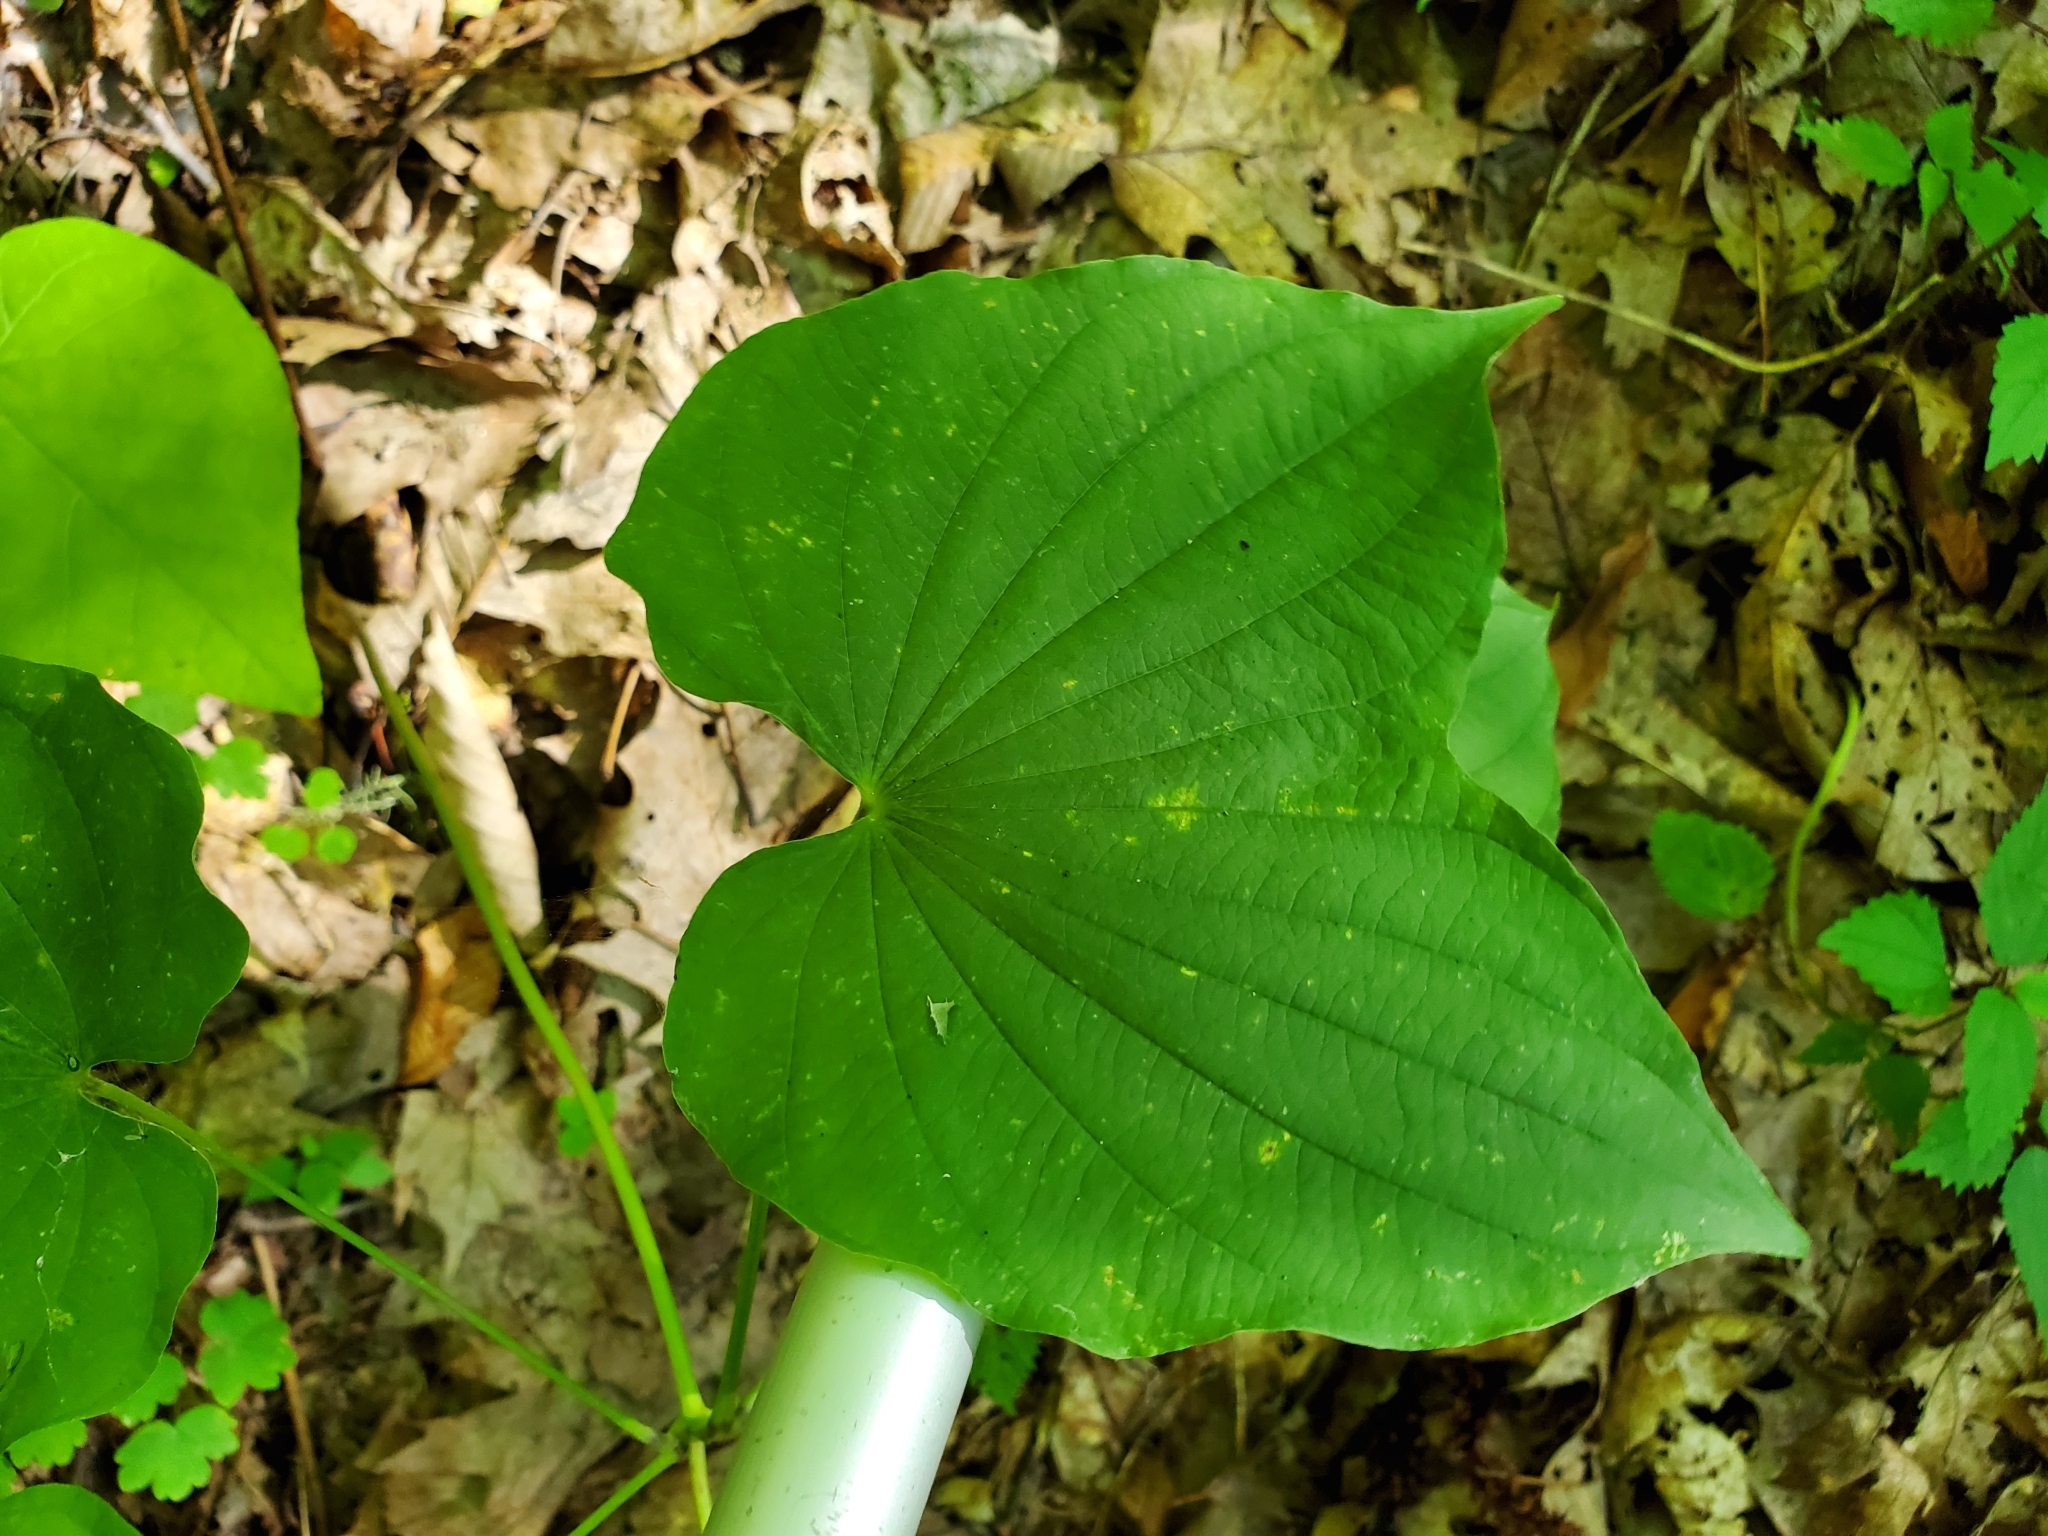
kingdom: Plantae
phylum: Tracheophyta
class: Liliopsida
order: Dioscoreales
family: Dioscoreaceae
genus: Dioscorea
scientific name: Dioscorea villosa
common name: Wild yam
